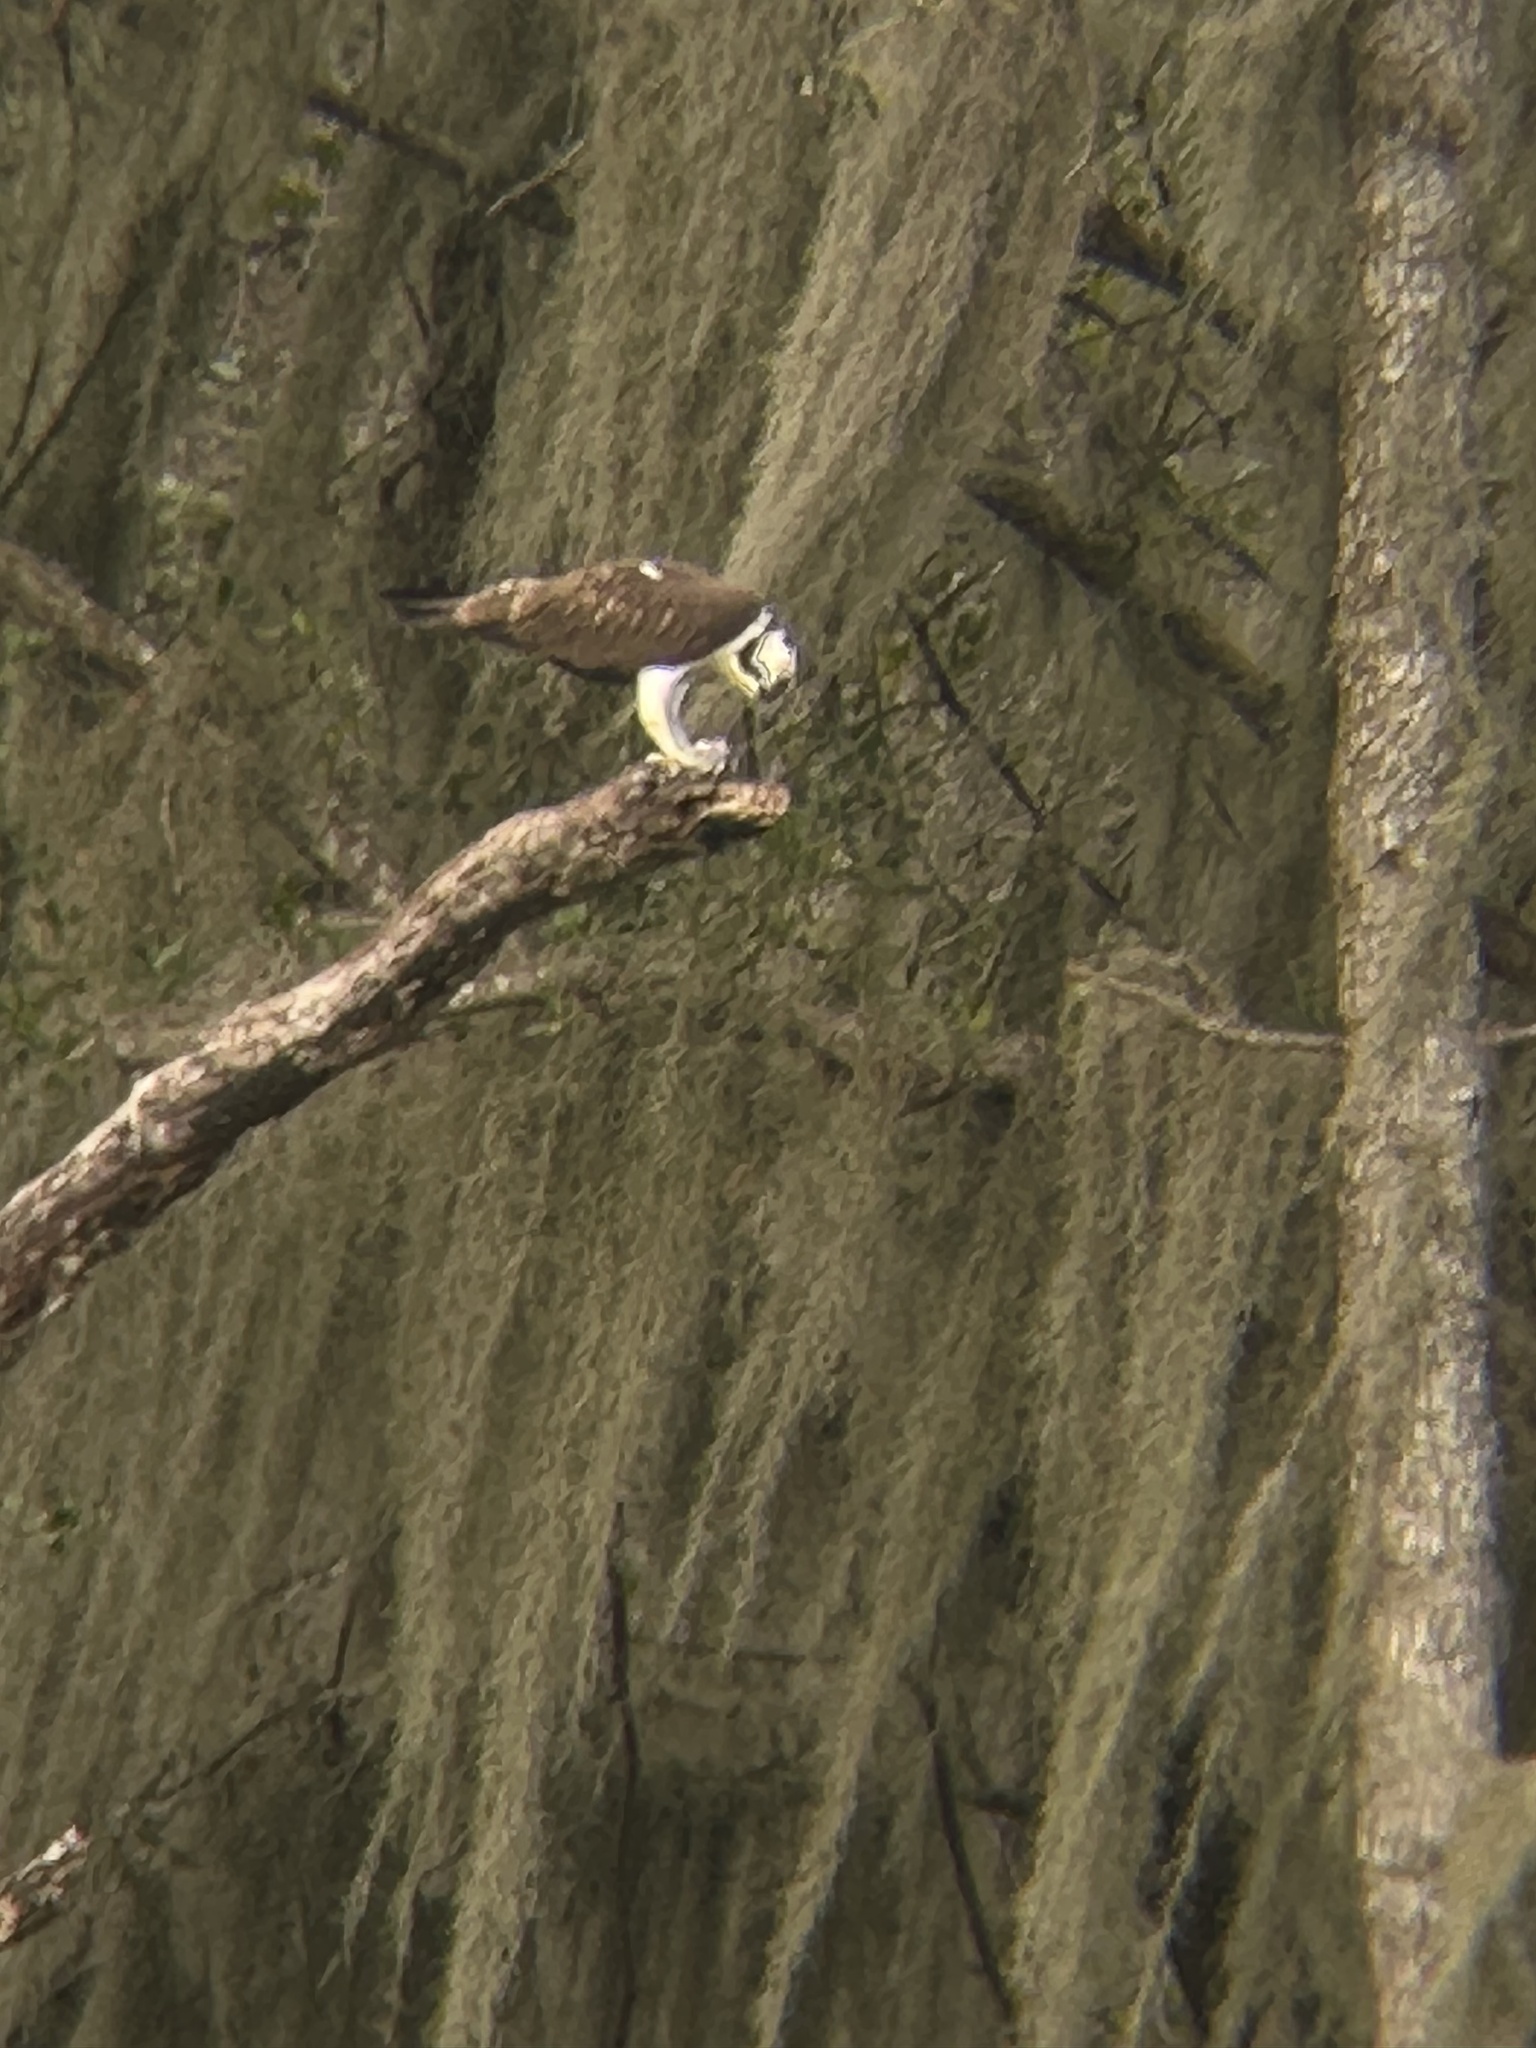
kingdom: Animalia
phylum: Chordata
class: Aves
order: Accipitriformes
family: Pandionidae
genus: Pandion
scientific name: Pandion haliaetus
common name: Osprey
